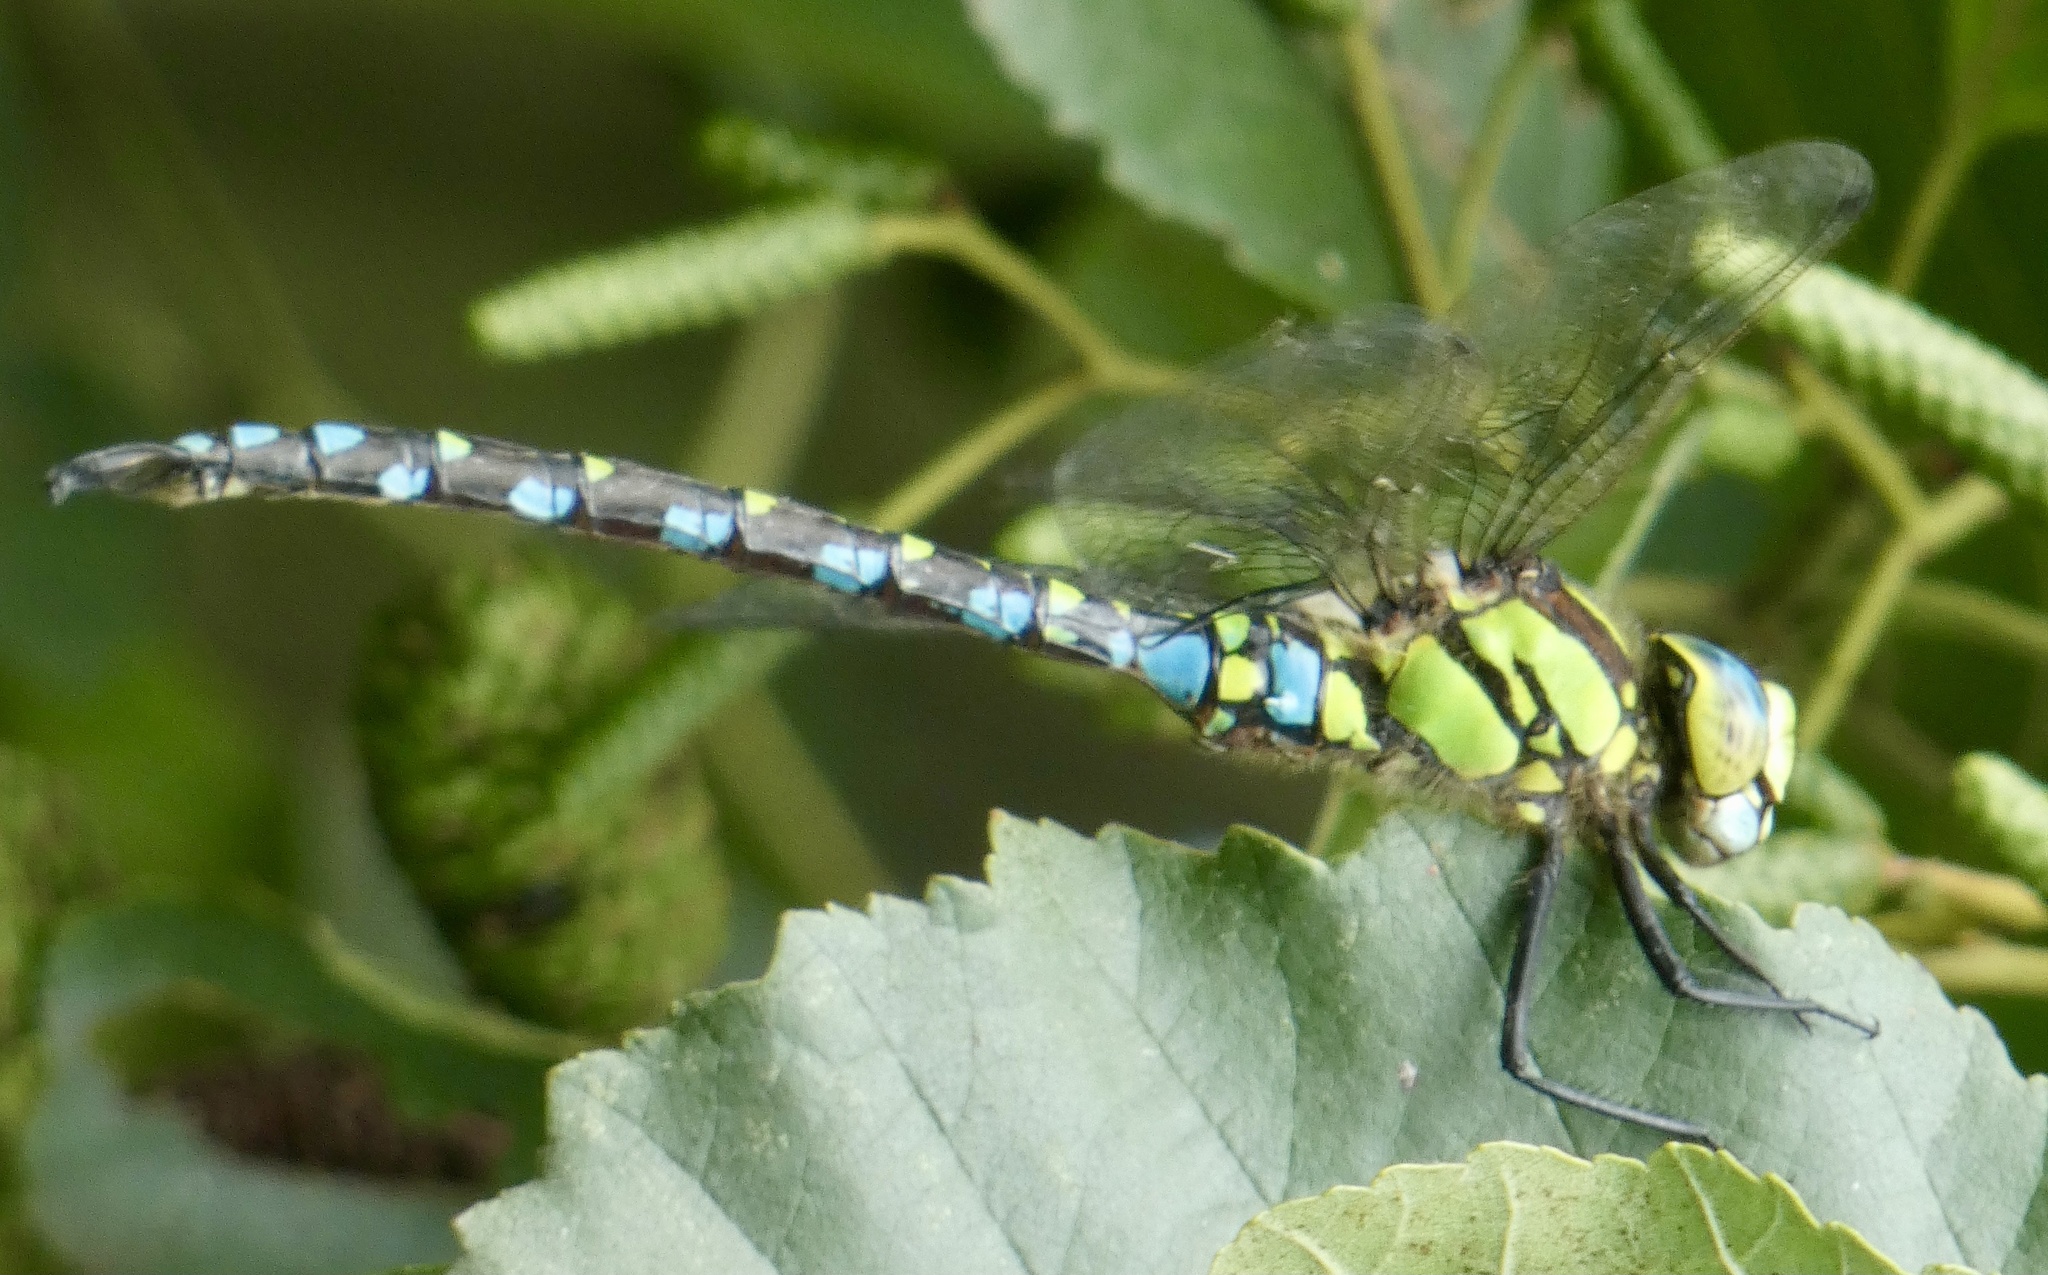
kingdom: Animalia
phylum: Arthropoda
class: Insecta
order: Odonata
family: Aeshnidae
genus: Aeshna
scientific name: Aeshna cyanea
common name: Southern hawker
